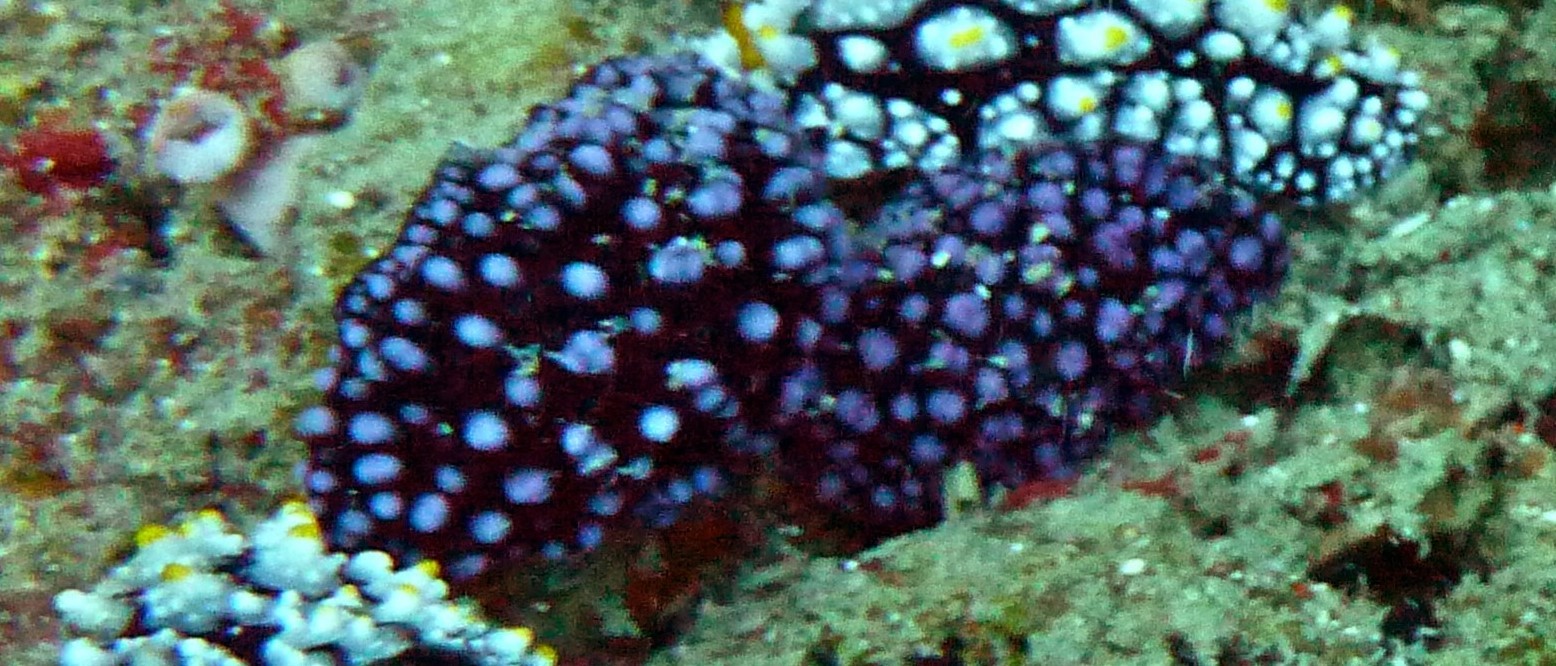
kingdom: Animalia
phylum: Mollusca
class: Gastropoda
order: Nudibranchia
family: Phyllidiidae
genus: Phyllidiella
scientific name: Phyllidiella nigra
